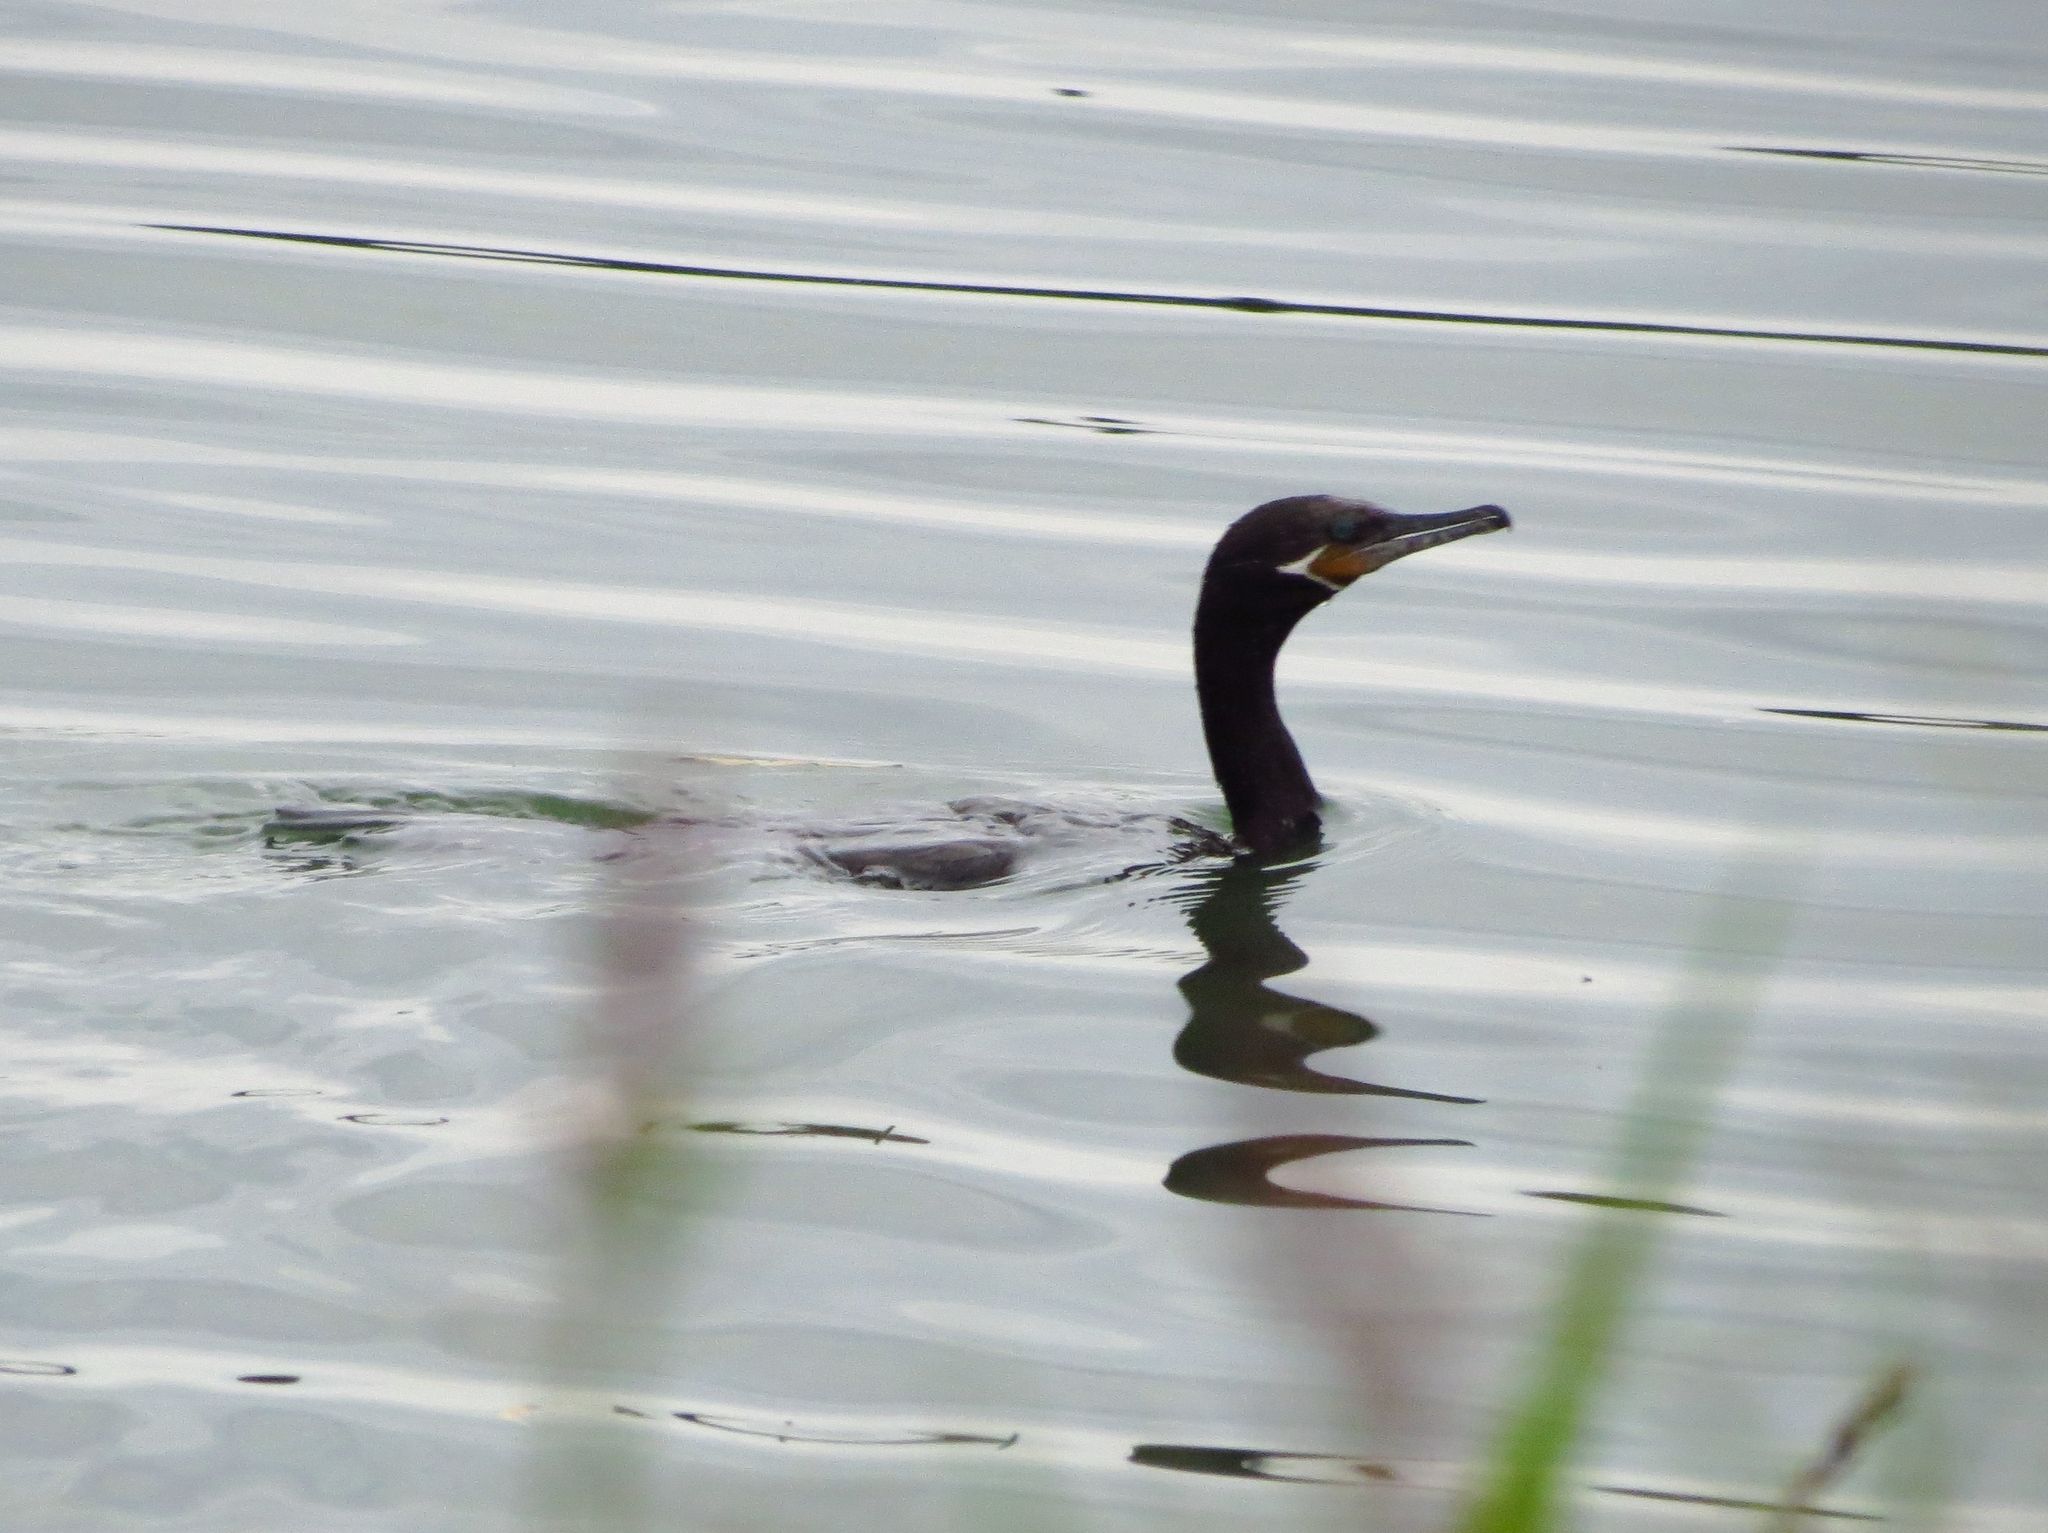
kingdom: Animalia
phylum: Chordata
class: Aves
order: Suliformes
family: Phalacrocoracidae
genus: Phalacrocorax
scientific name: Phalacrocorax brasilianus
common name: Neotropic cormorant
